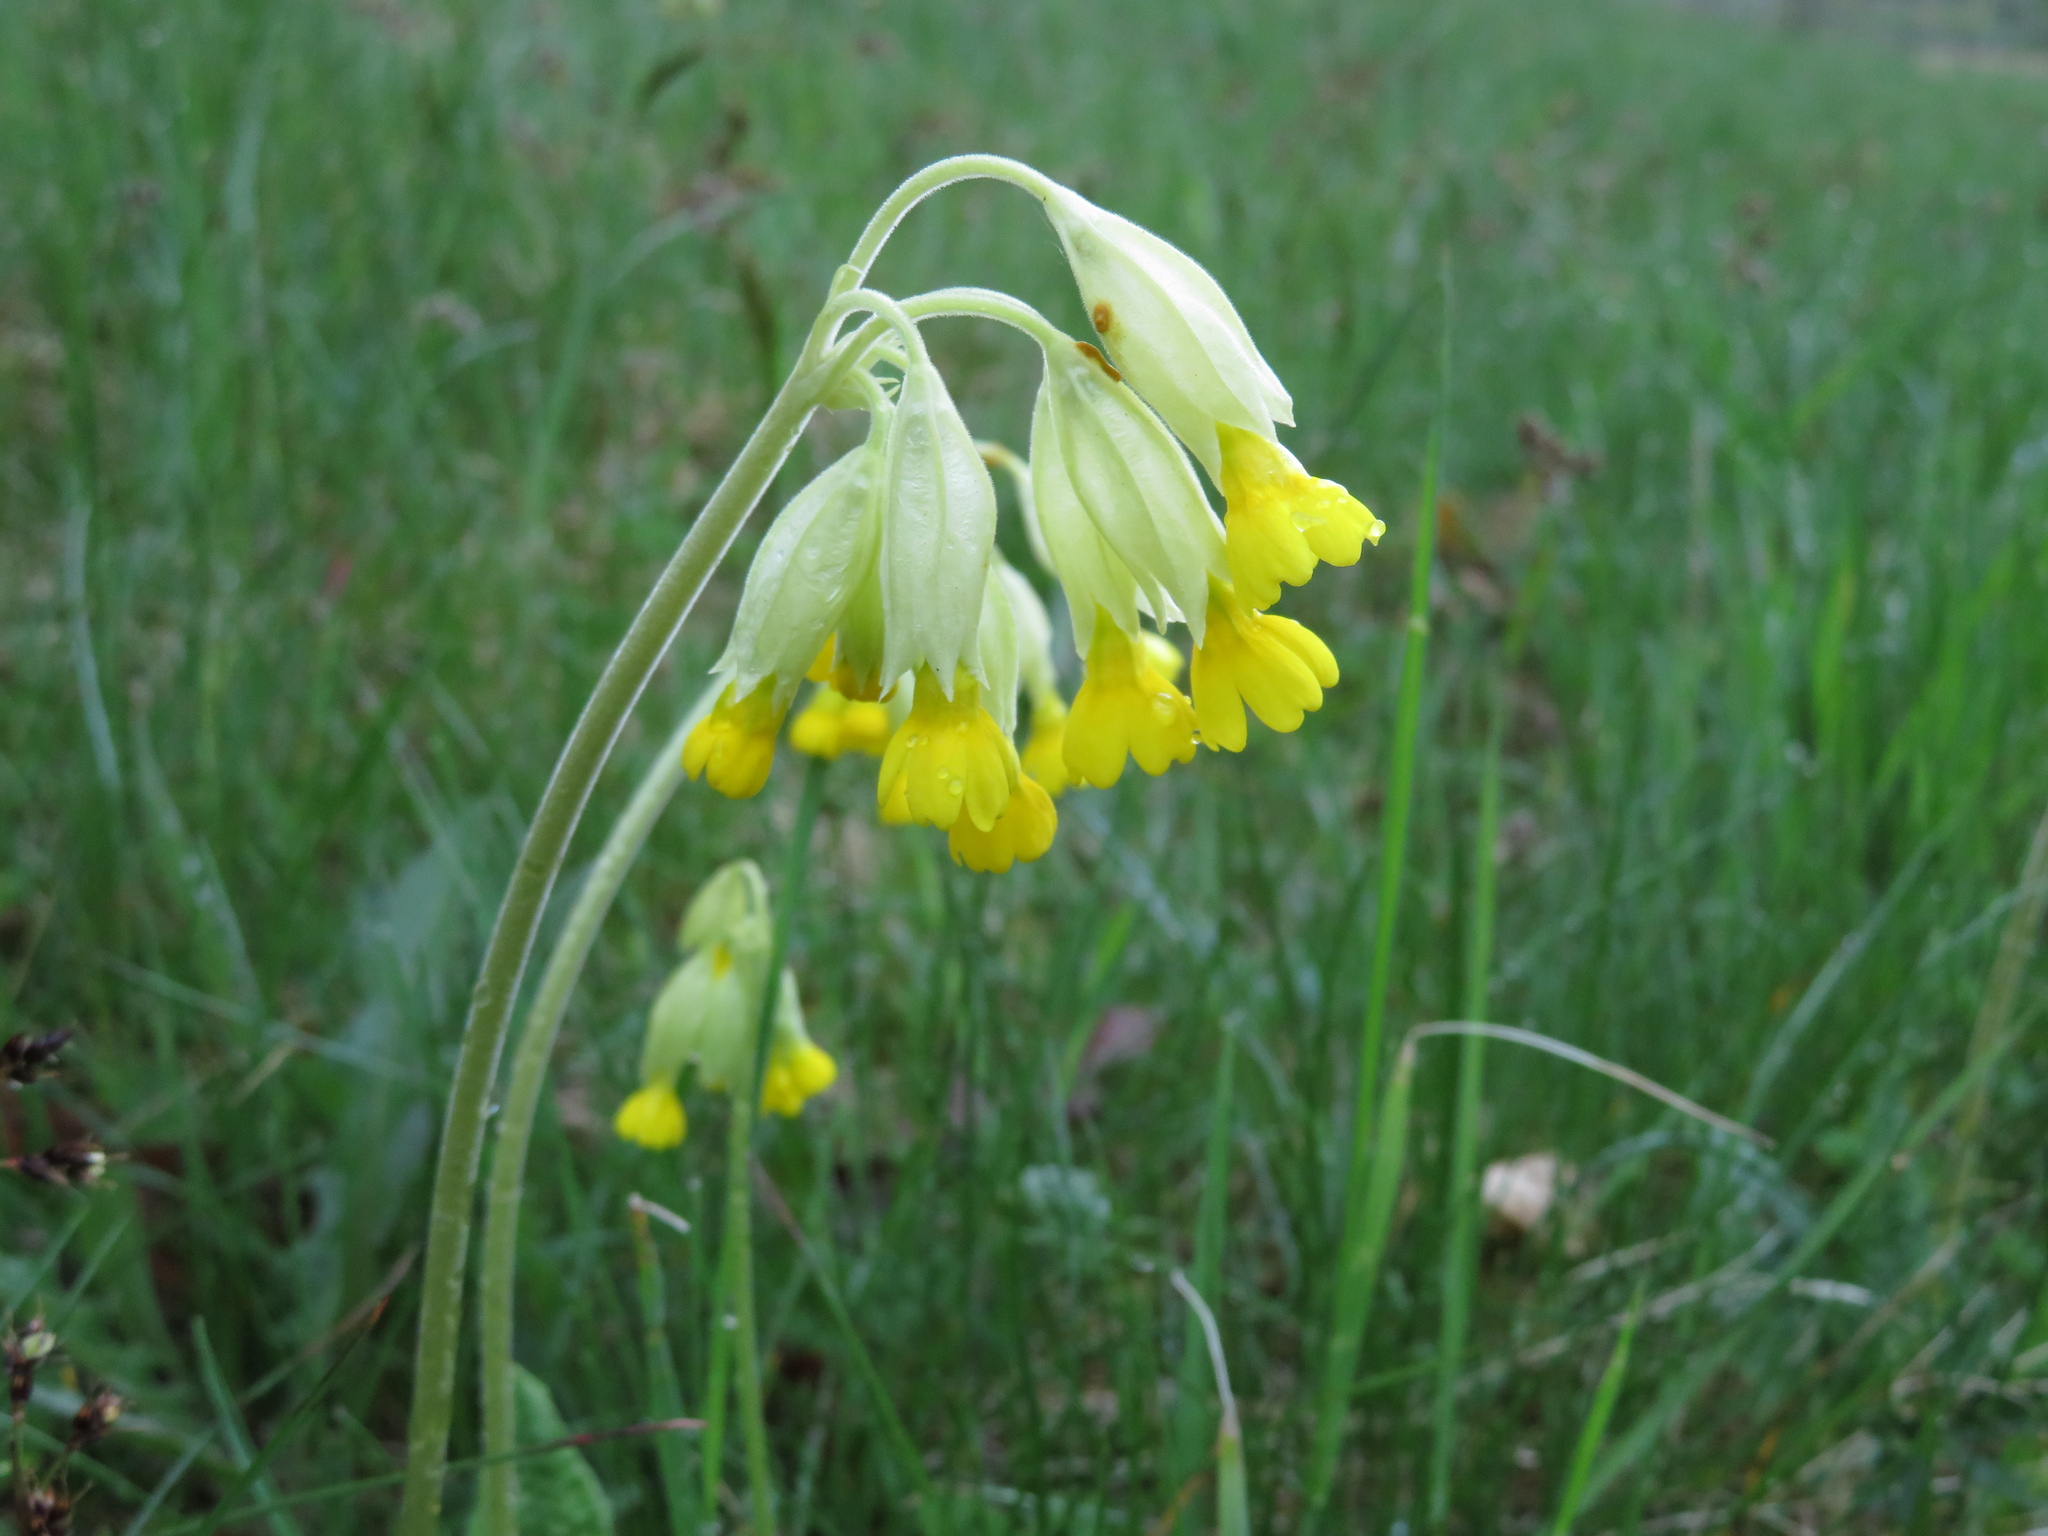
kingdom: Plantae
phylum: Tracheophyta
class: Magnoliopsida
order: Ericales
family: Primulaceae
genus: Primula
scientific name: Primula veris
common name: Cowslip
